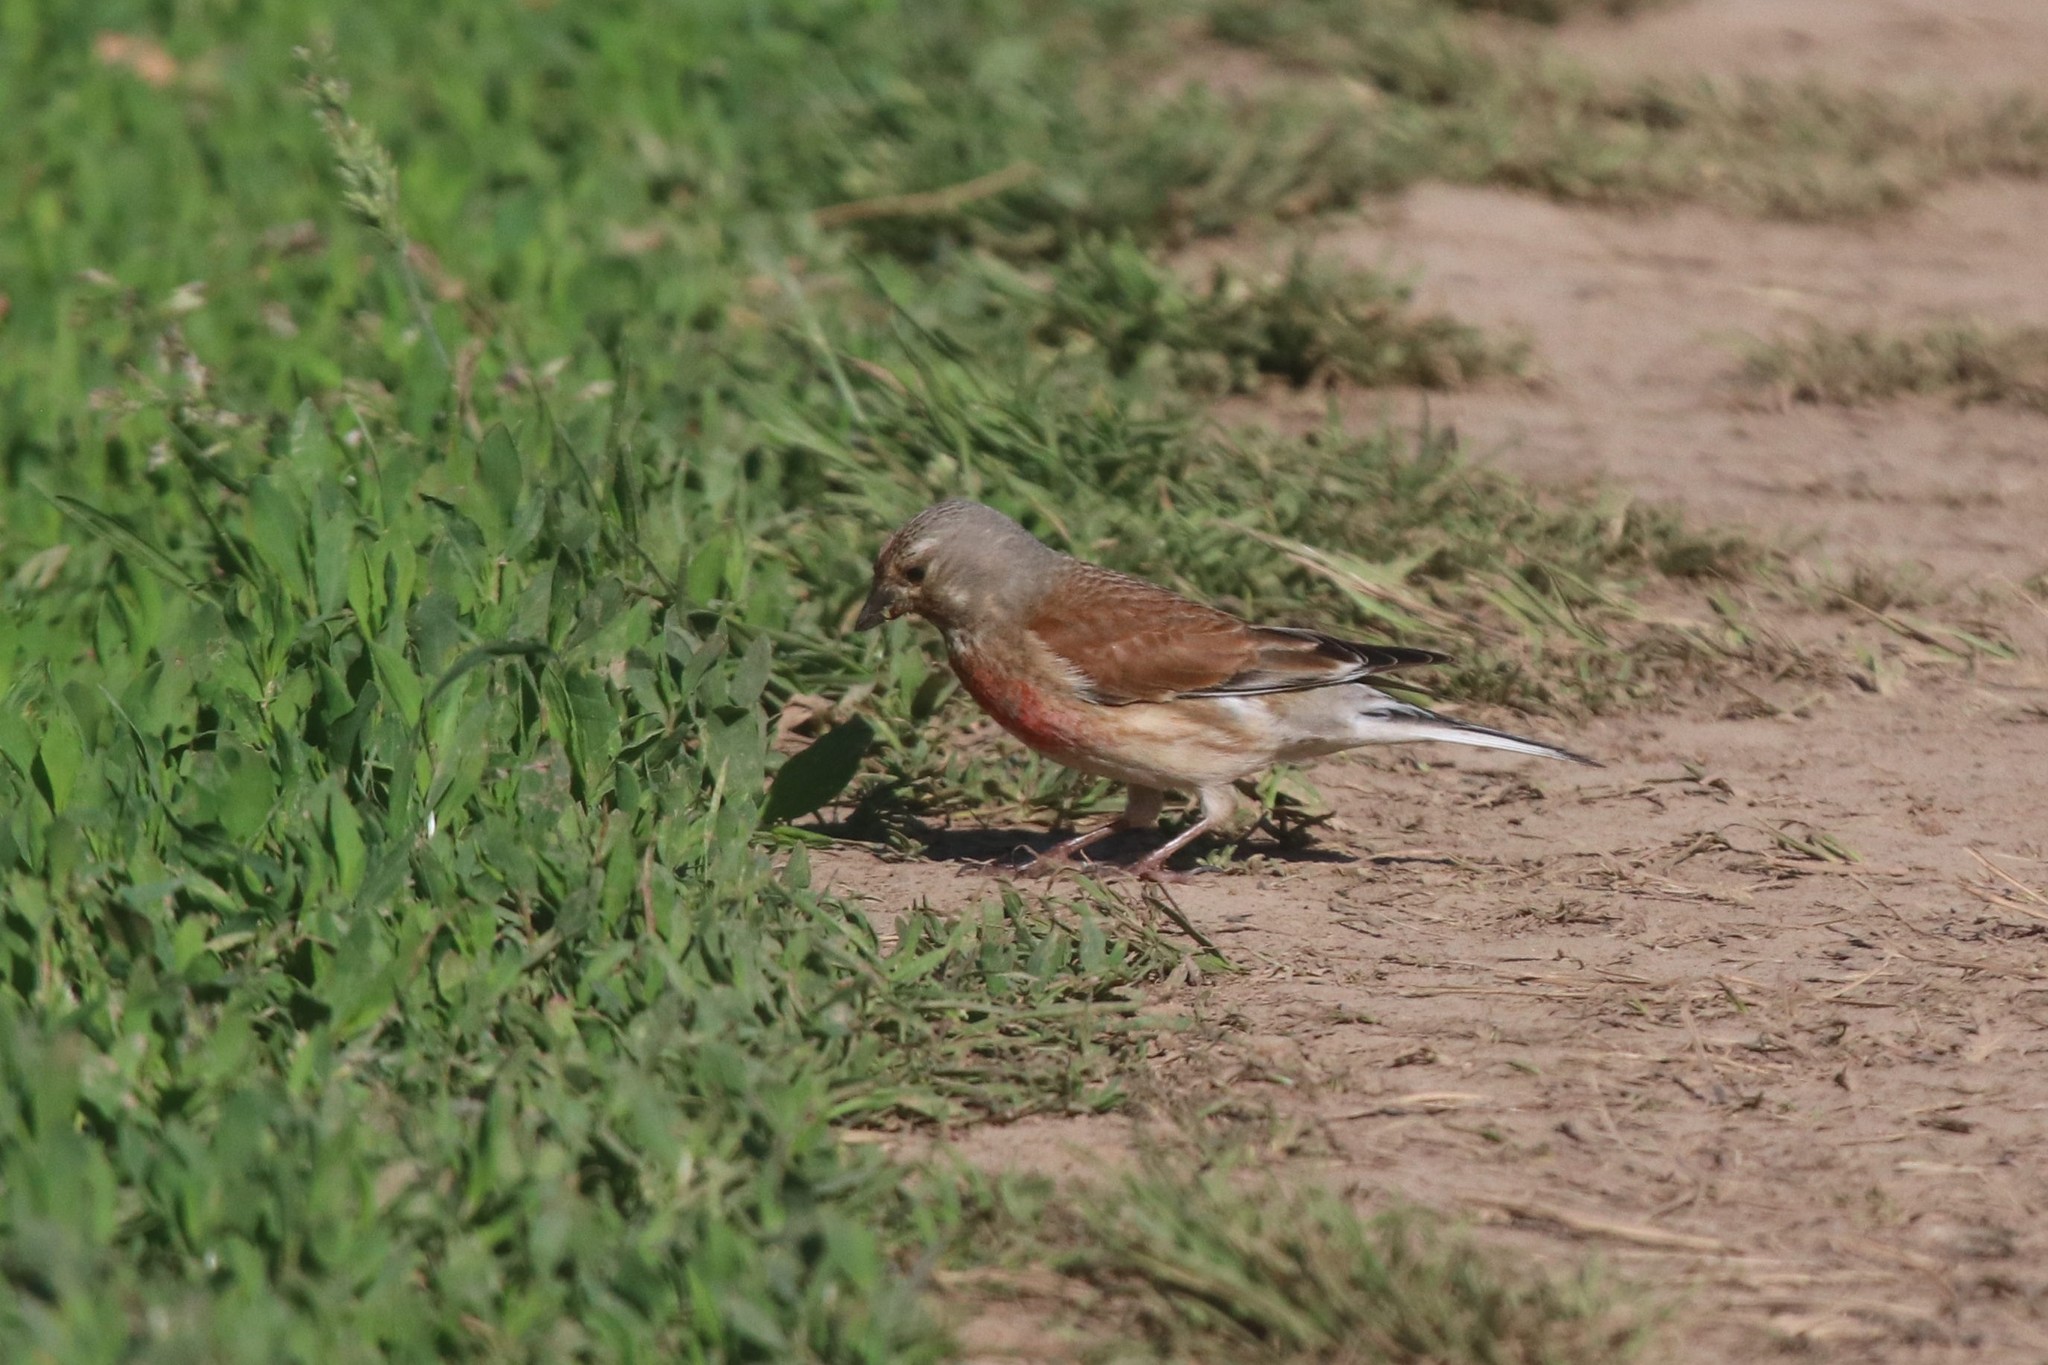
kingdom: Animalia
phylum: Chordata
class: Aves
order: Passeriformes
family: Fringillidae
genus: Linaria
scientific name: Linaria cannabina
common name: Common linnet
